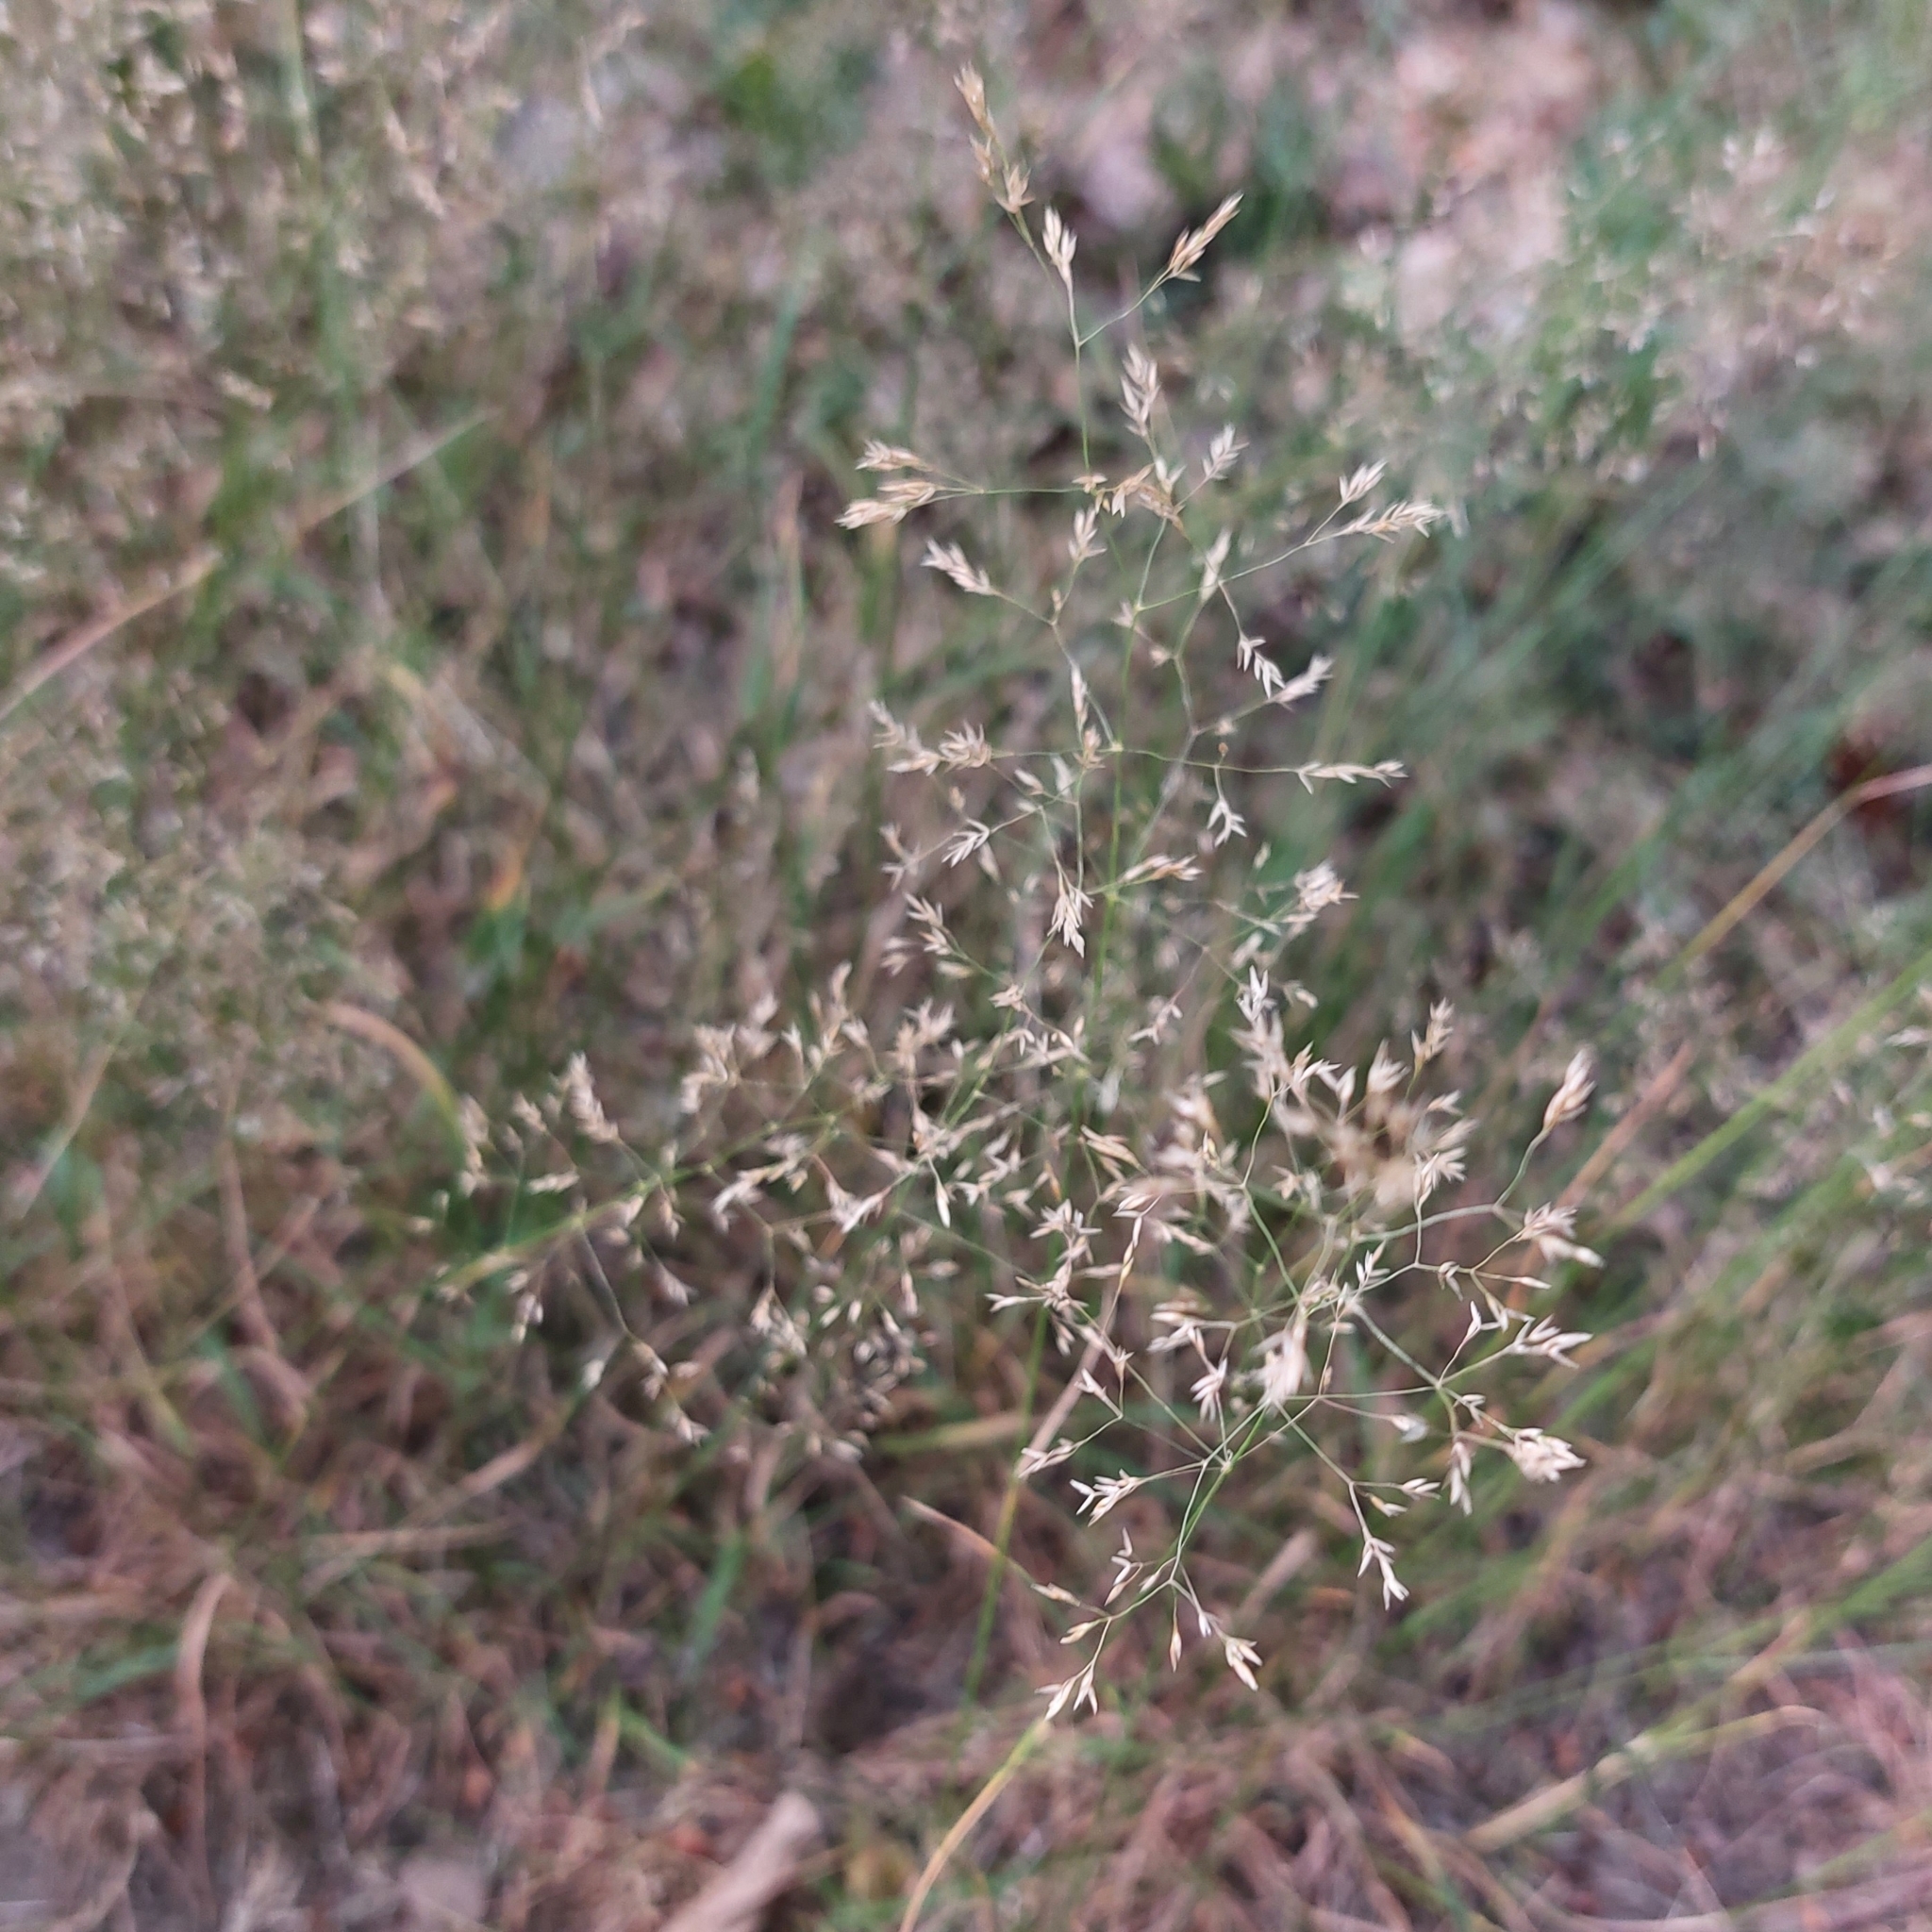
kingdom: Plantae
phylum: Tracheophyta
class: Liliopsida
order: Poales
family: Poaceae
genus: Agrostis
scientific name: Agrostis capillaris
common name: Colonial bentgrass
